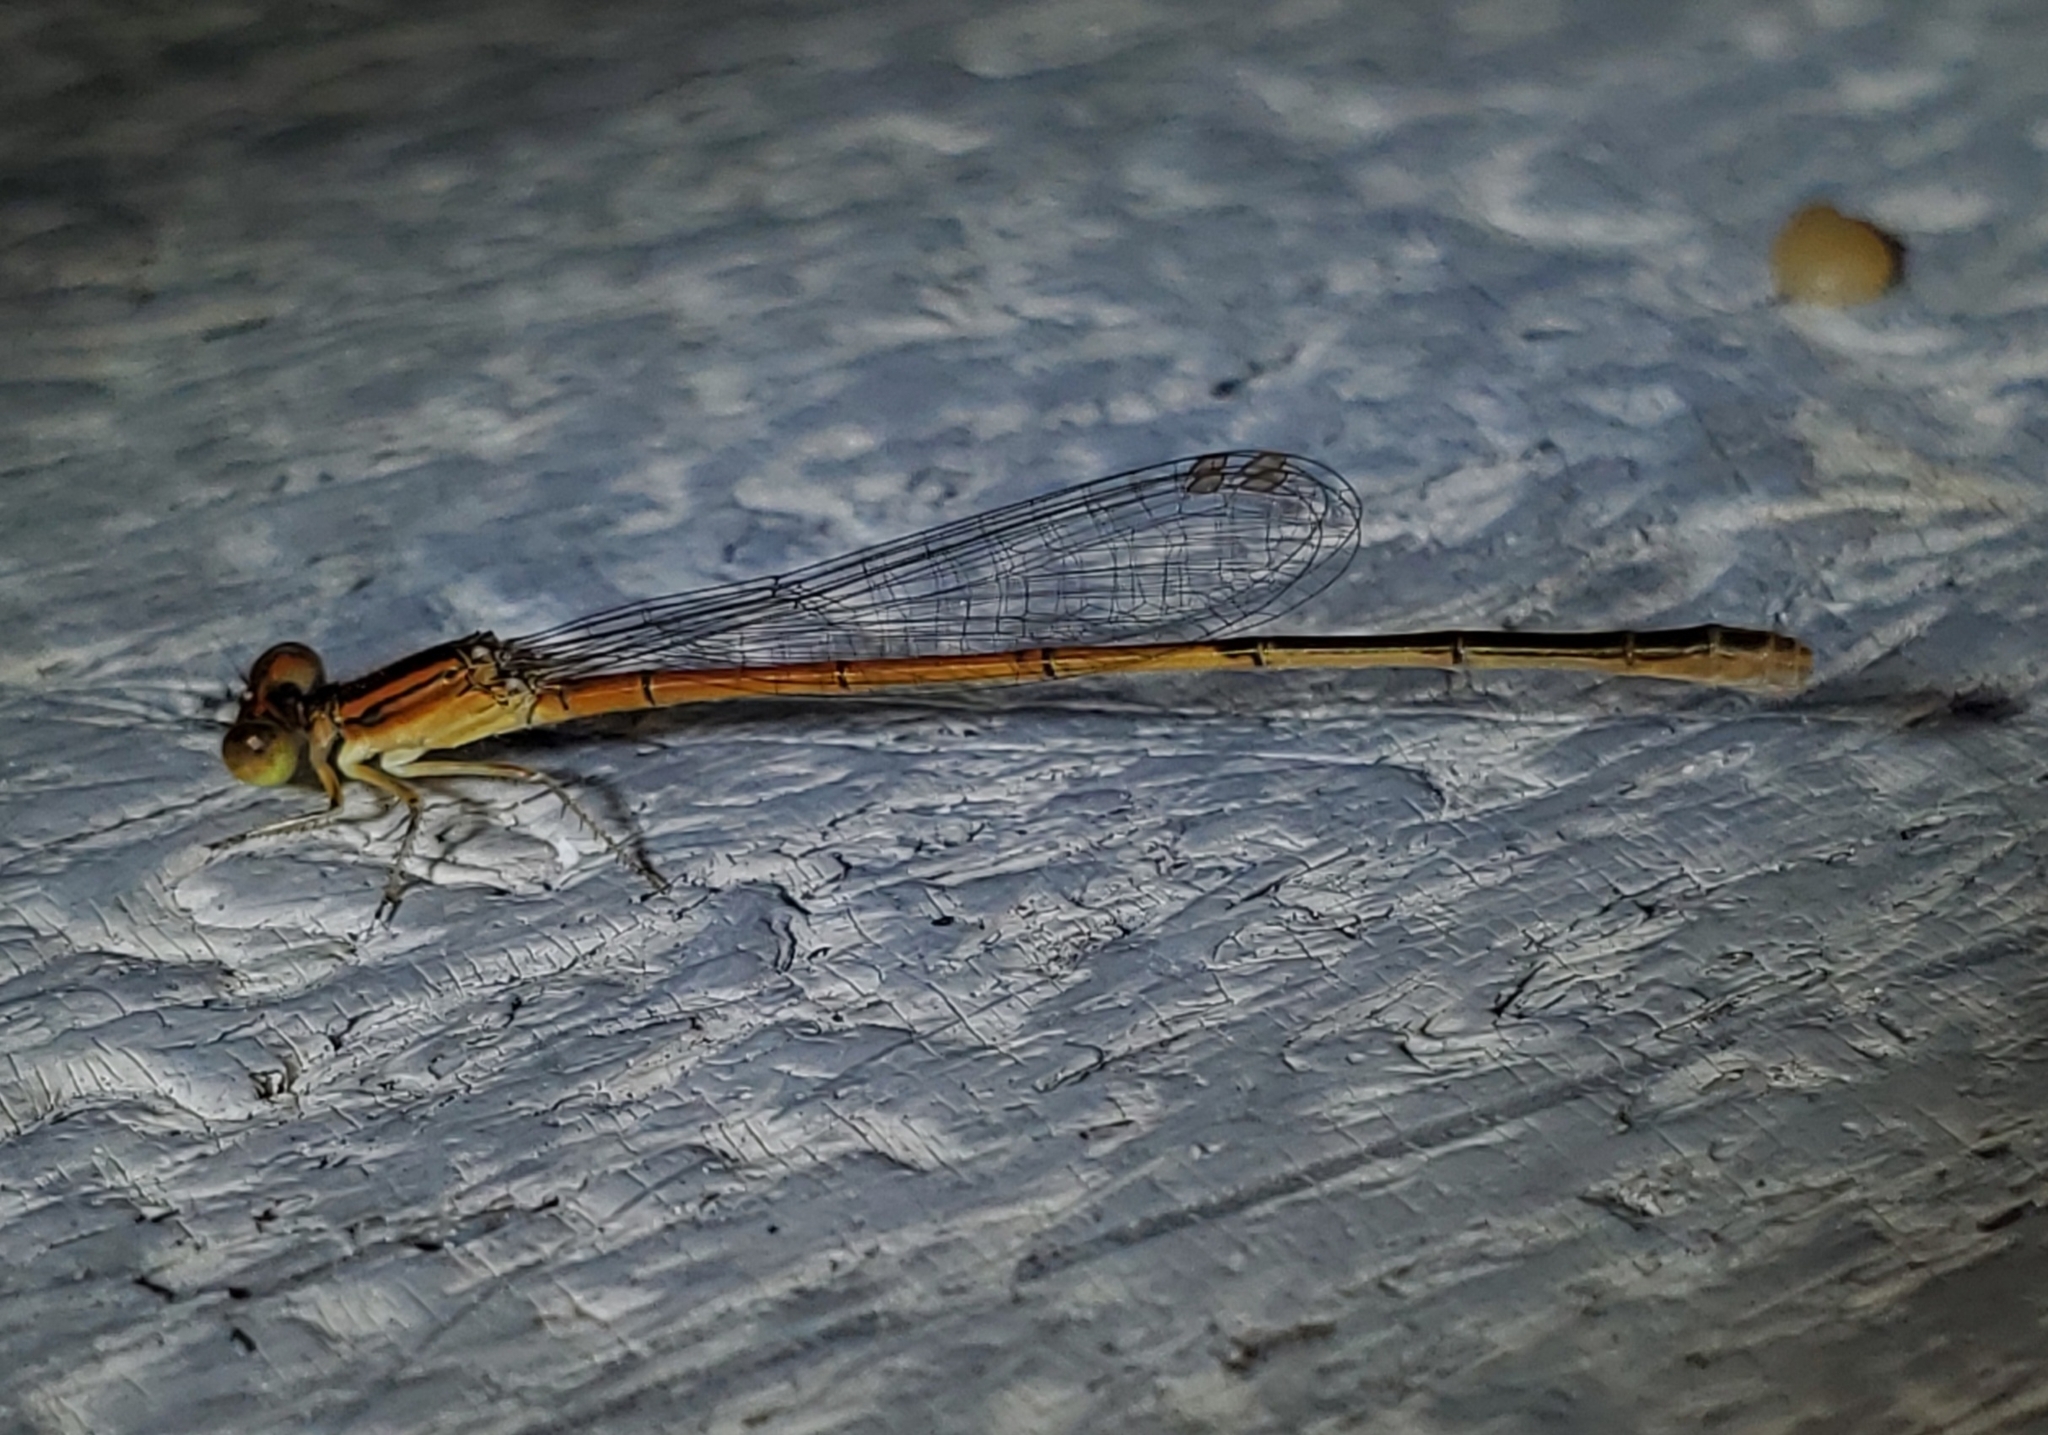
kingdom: Animalia
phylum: Arthropoda
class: Insecta
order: Odonata
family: Coenagrionidae
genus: Ischnura
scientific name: Ischnura hastata
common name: Citrine forktail
